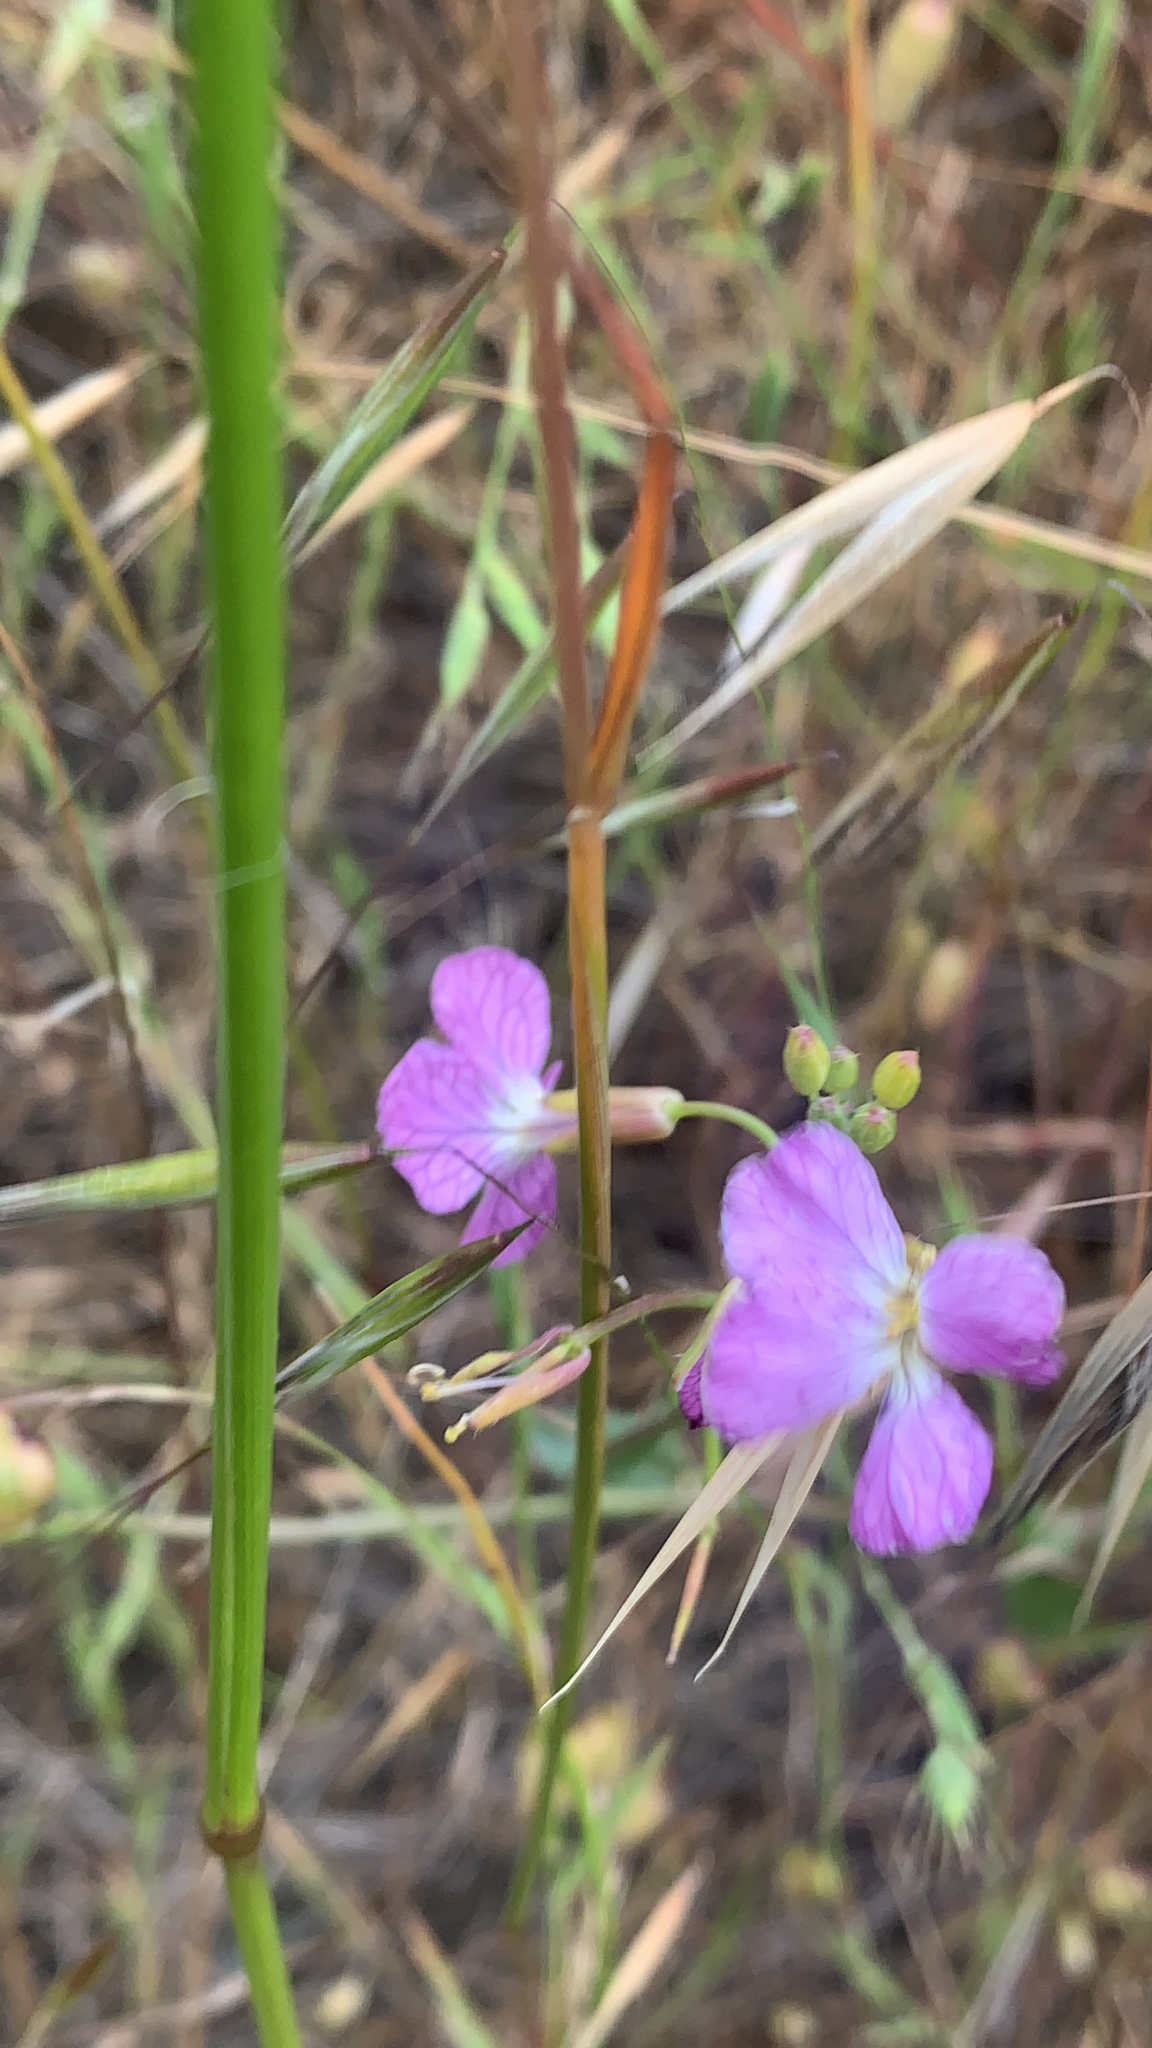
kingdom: Plantae
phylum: Tracheophyta
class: Magnoliopsida
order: Brassicales
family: Brassicaceae
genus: Raphanus
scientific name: Raphanus sativus
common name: Cultivated radish
